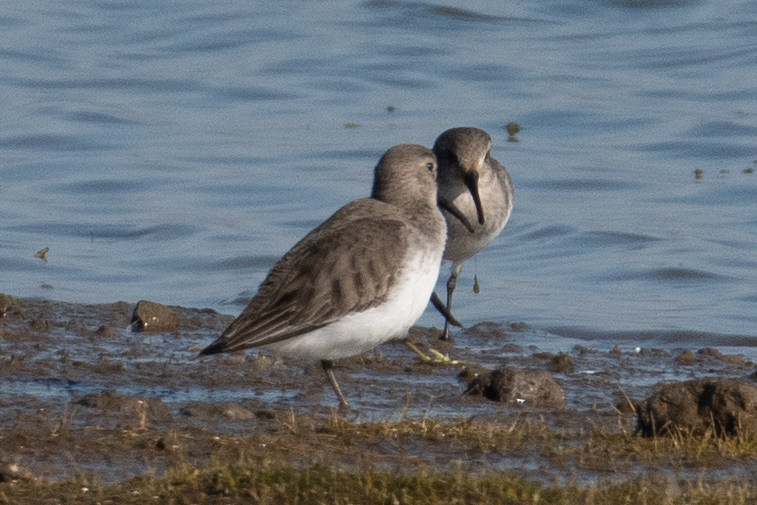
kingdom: Animalia
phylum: Chordata
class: Aves
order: Charadriiformes
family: Scolopacidae
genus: Calidris
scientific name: Calidris alpina
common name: Dunlin
